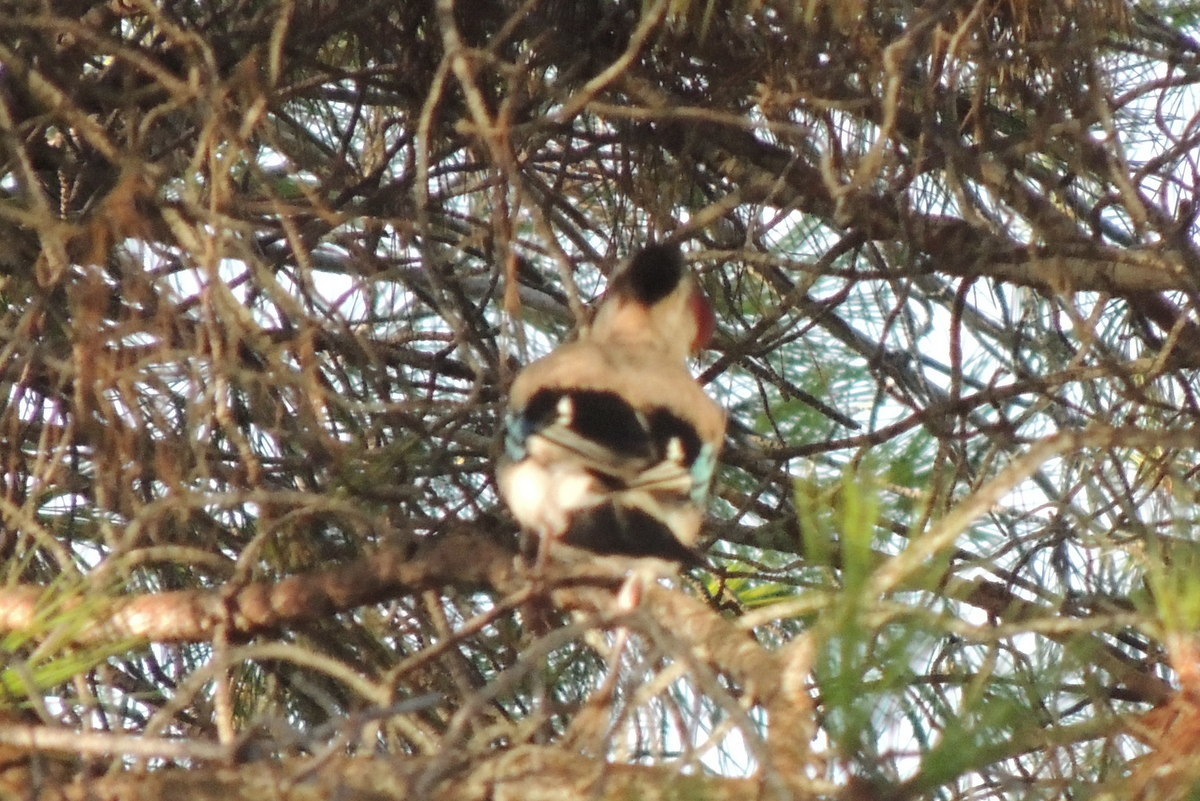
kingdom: Animalia
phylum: Chordata
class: Aves
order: Passeriformes
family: Corvidae
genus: Garrulus
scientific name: Garrulus glandarius
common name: Eurasian jay
